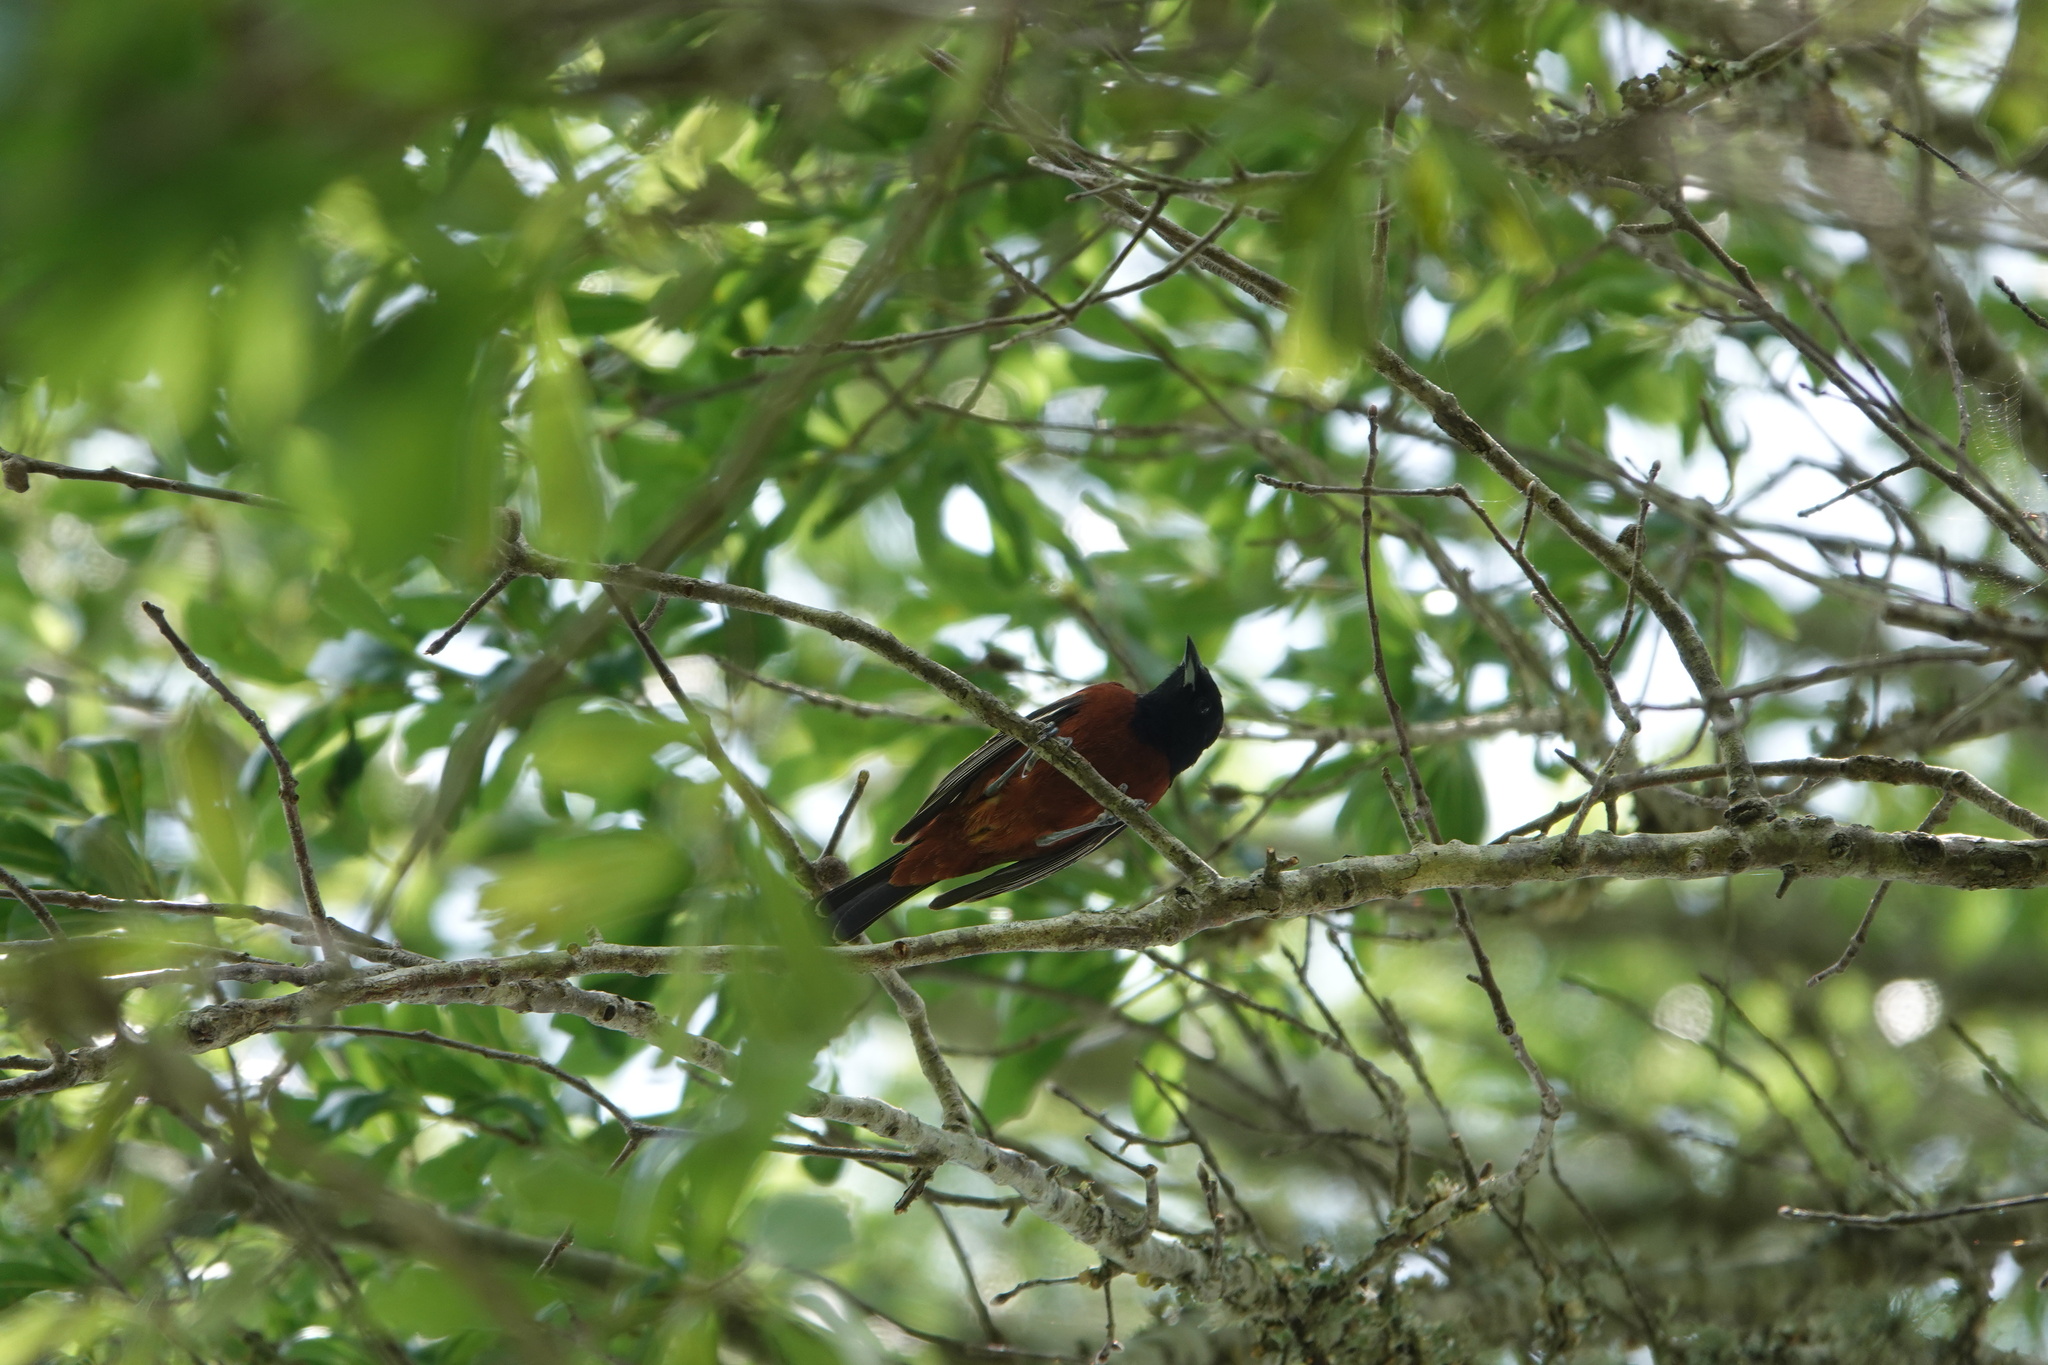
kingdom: Animalia
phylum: Chordata
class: Aves
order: Passeriformes
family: Icteridae
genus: Icterus
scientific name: Icterus spurius
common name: Orchard oriole
